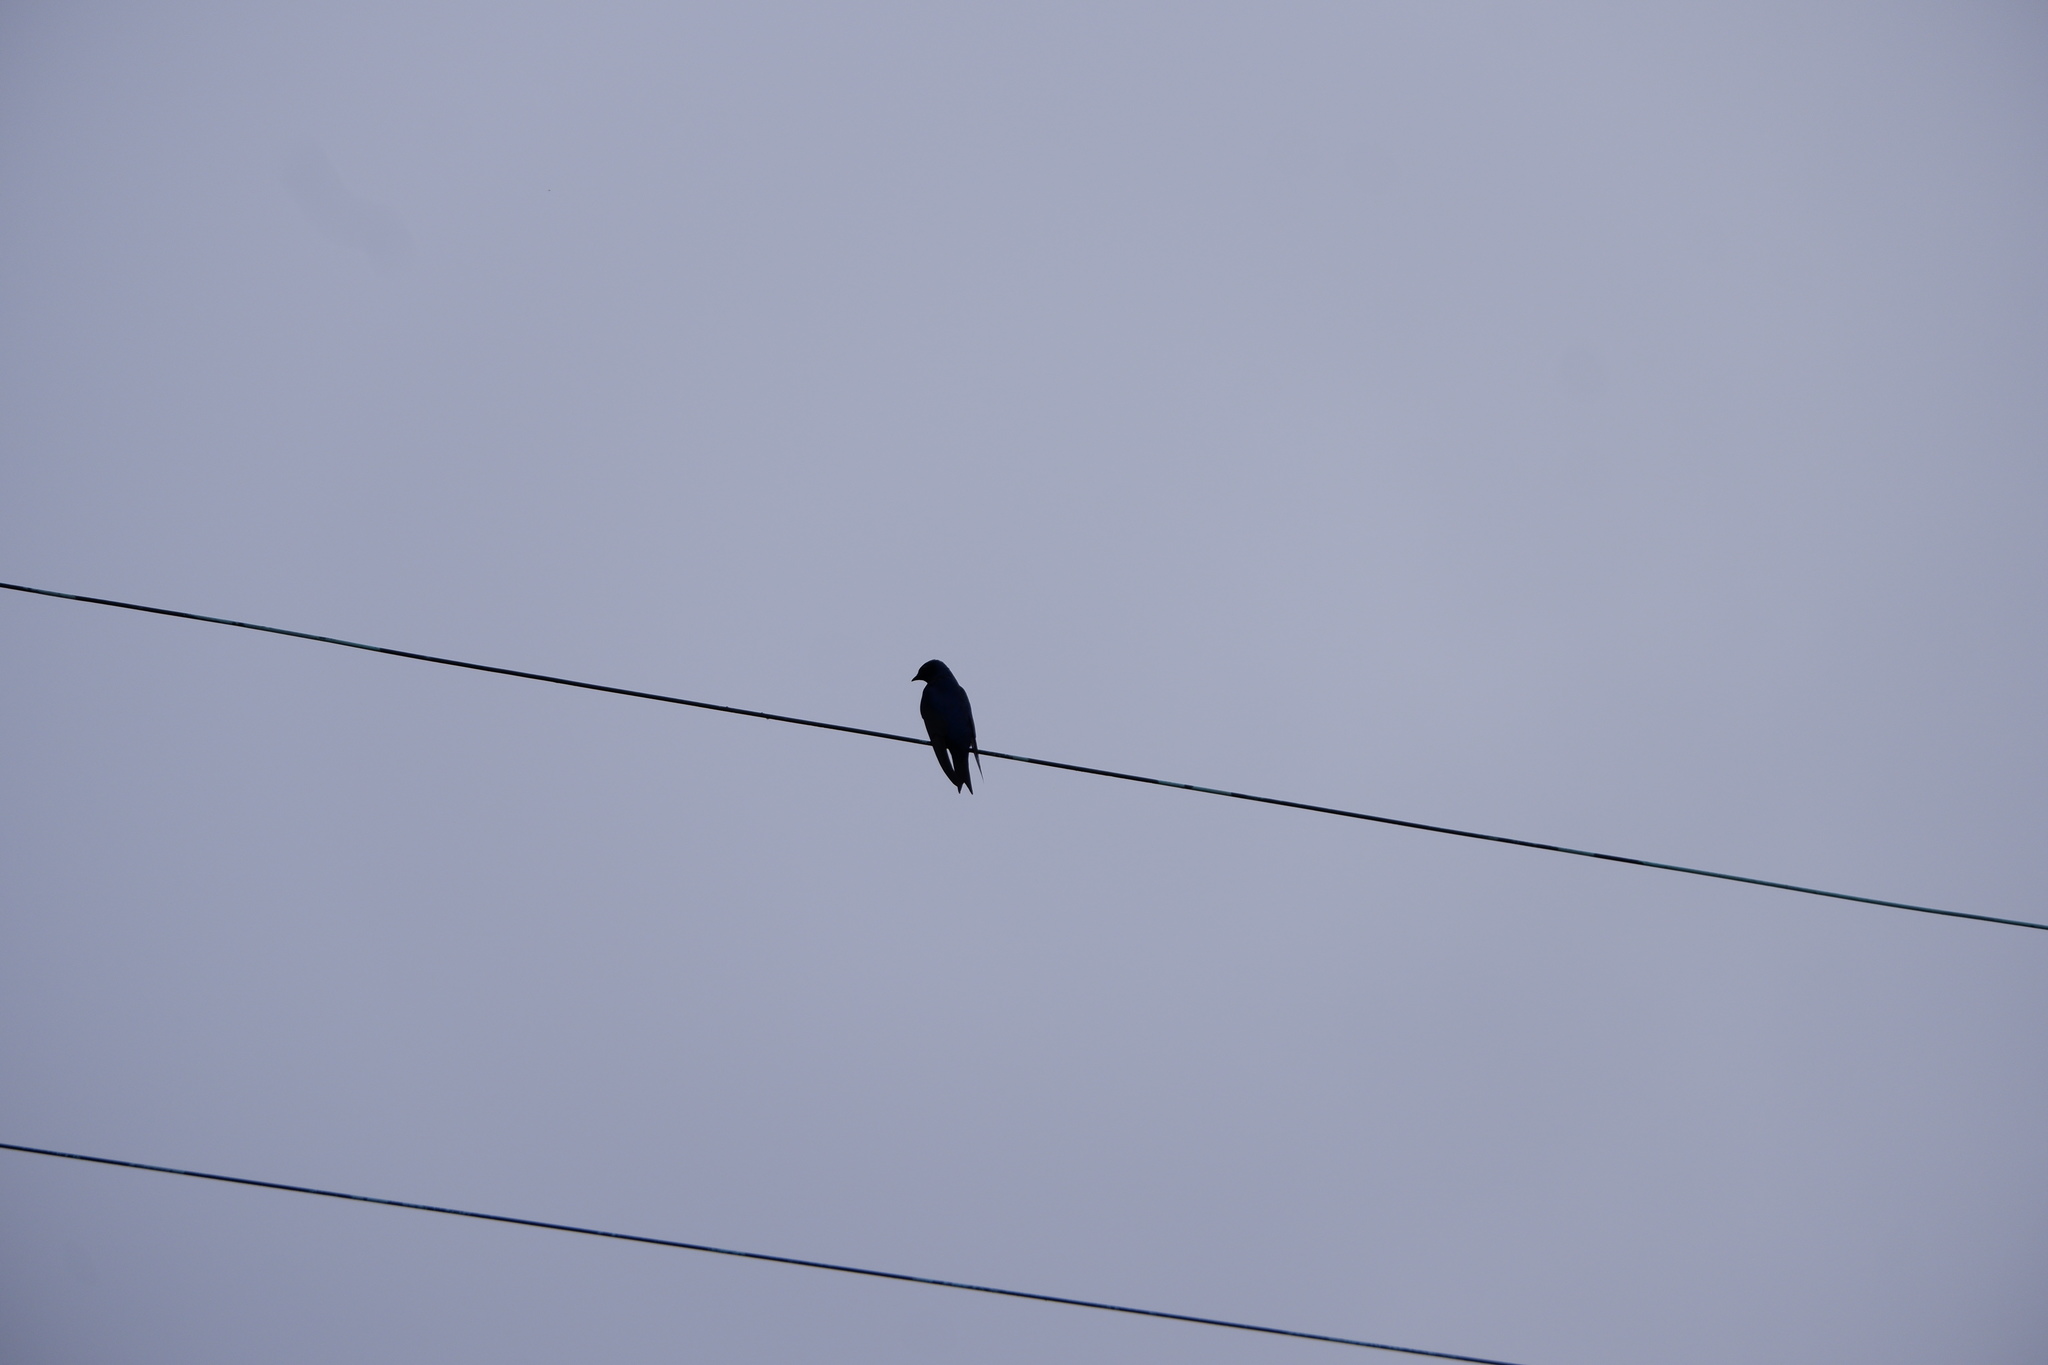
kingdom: Animalia
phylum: Chordata
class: Aves
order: Passeriformes
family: Hirundinidae
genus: Progne
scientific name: Progne subis
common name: Purple martin
